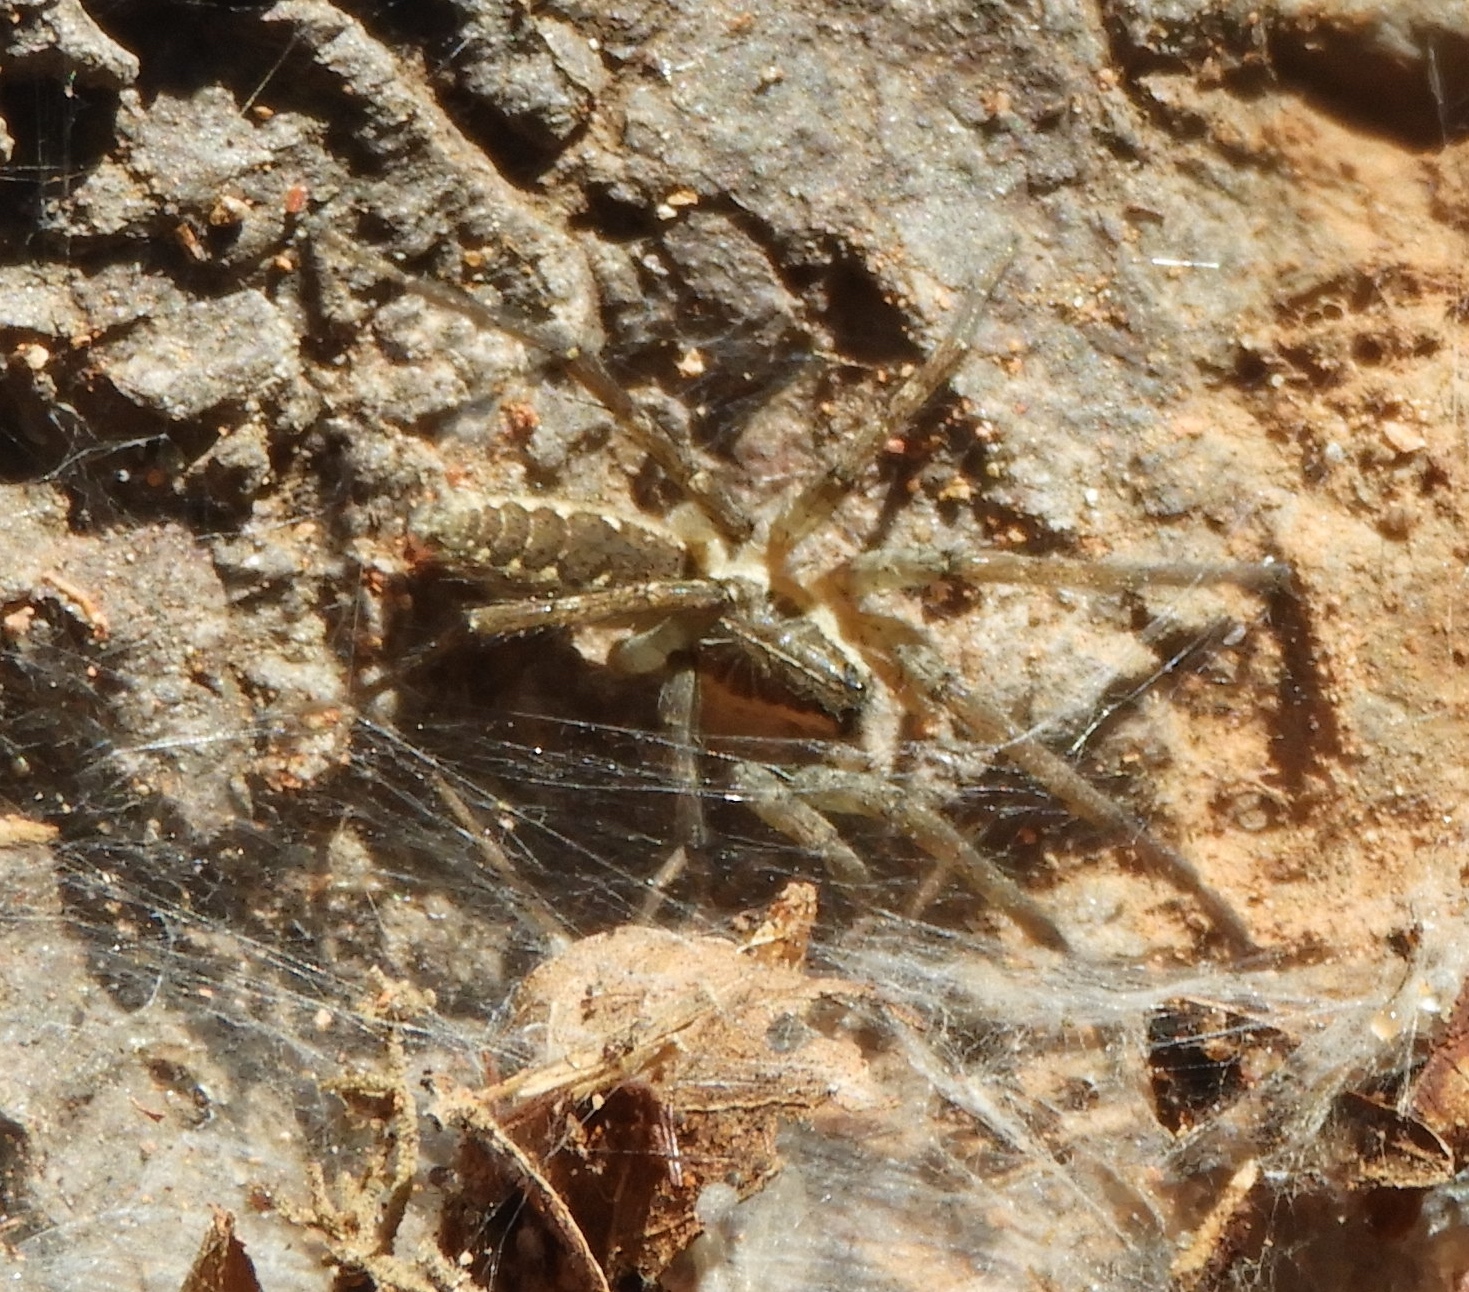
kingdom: Animalia
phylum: Arthropoda
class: Arachnida
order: Araneae
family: Lycosidae
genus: Sosippus
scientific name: Sosippus californicus
